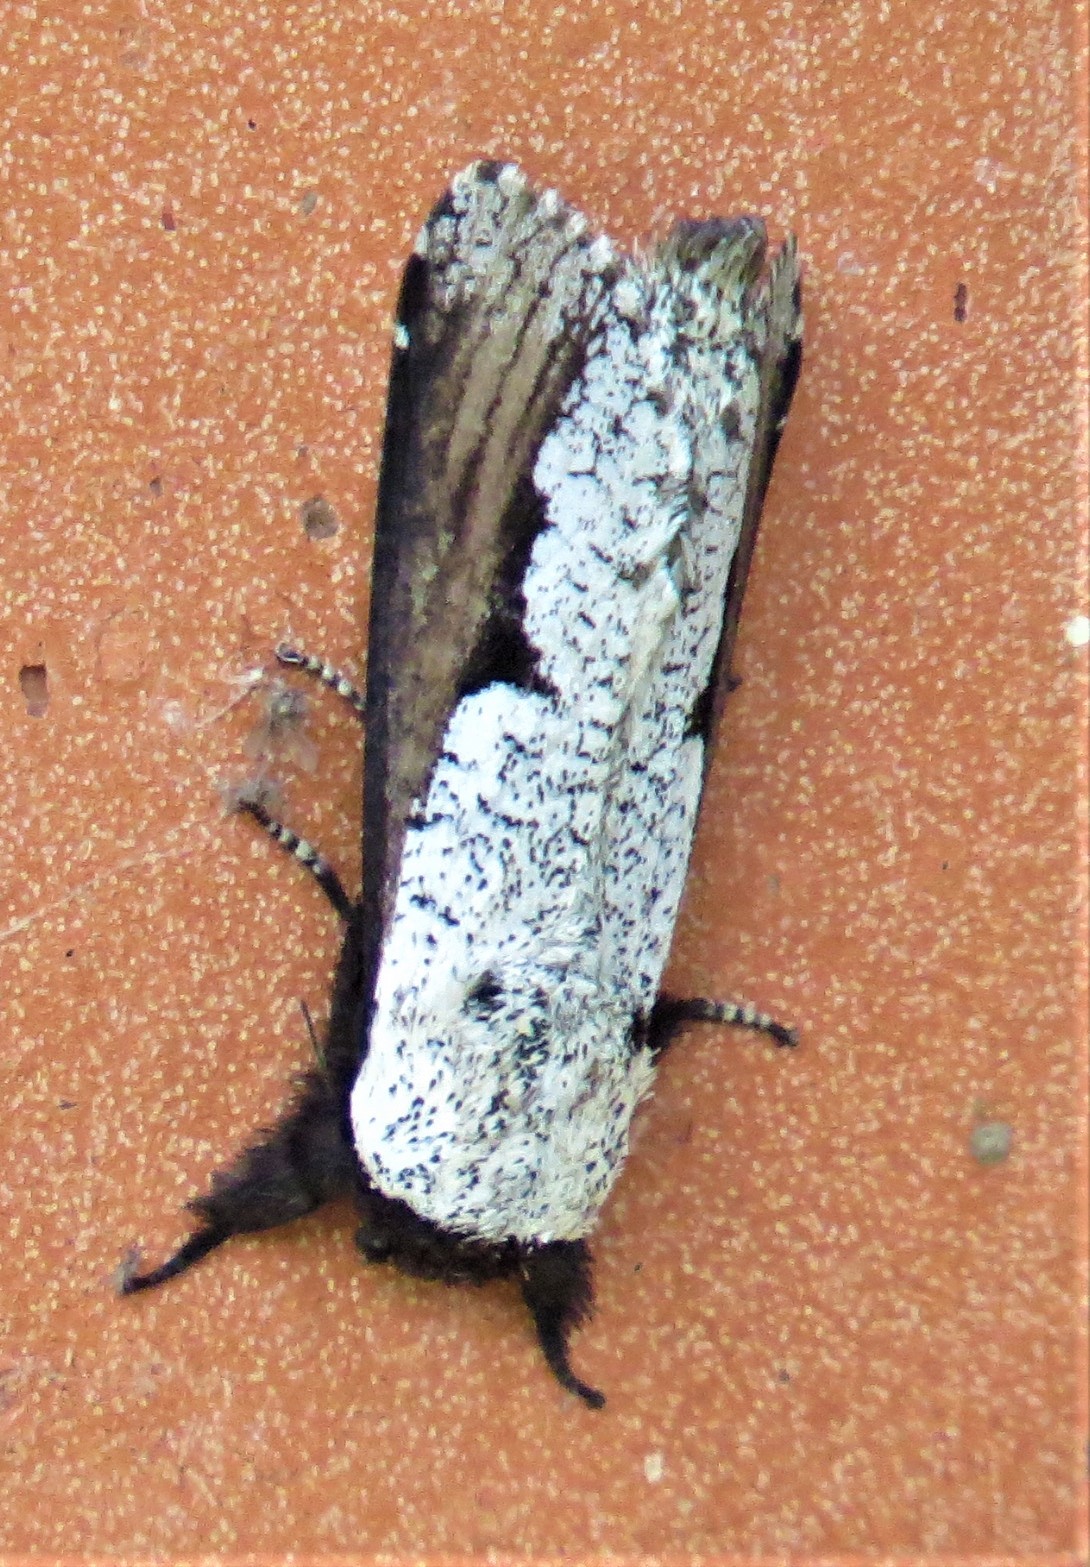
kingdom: Animalia
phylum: Arthropoda
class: Insecta
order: Lepidoptera
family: Cossidae
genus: Brypoctia
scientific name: Brypoctia
